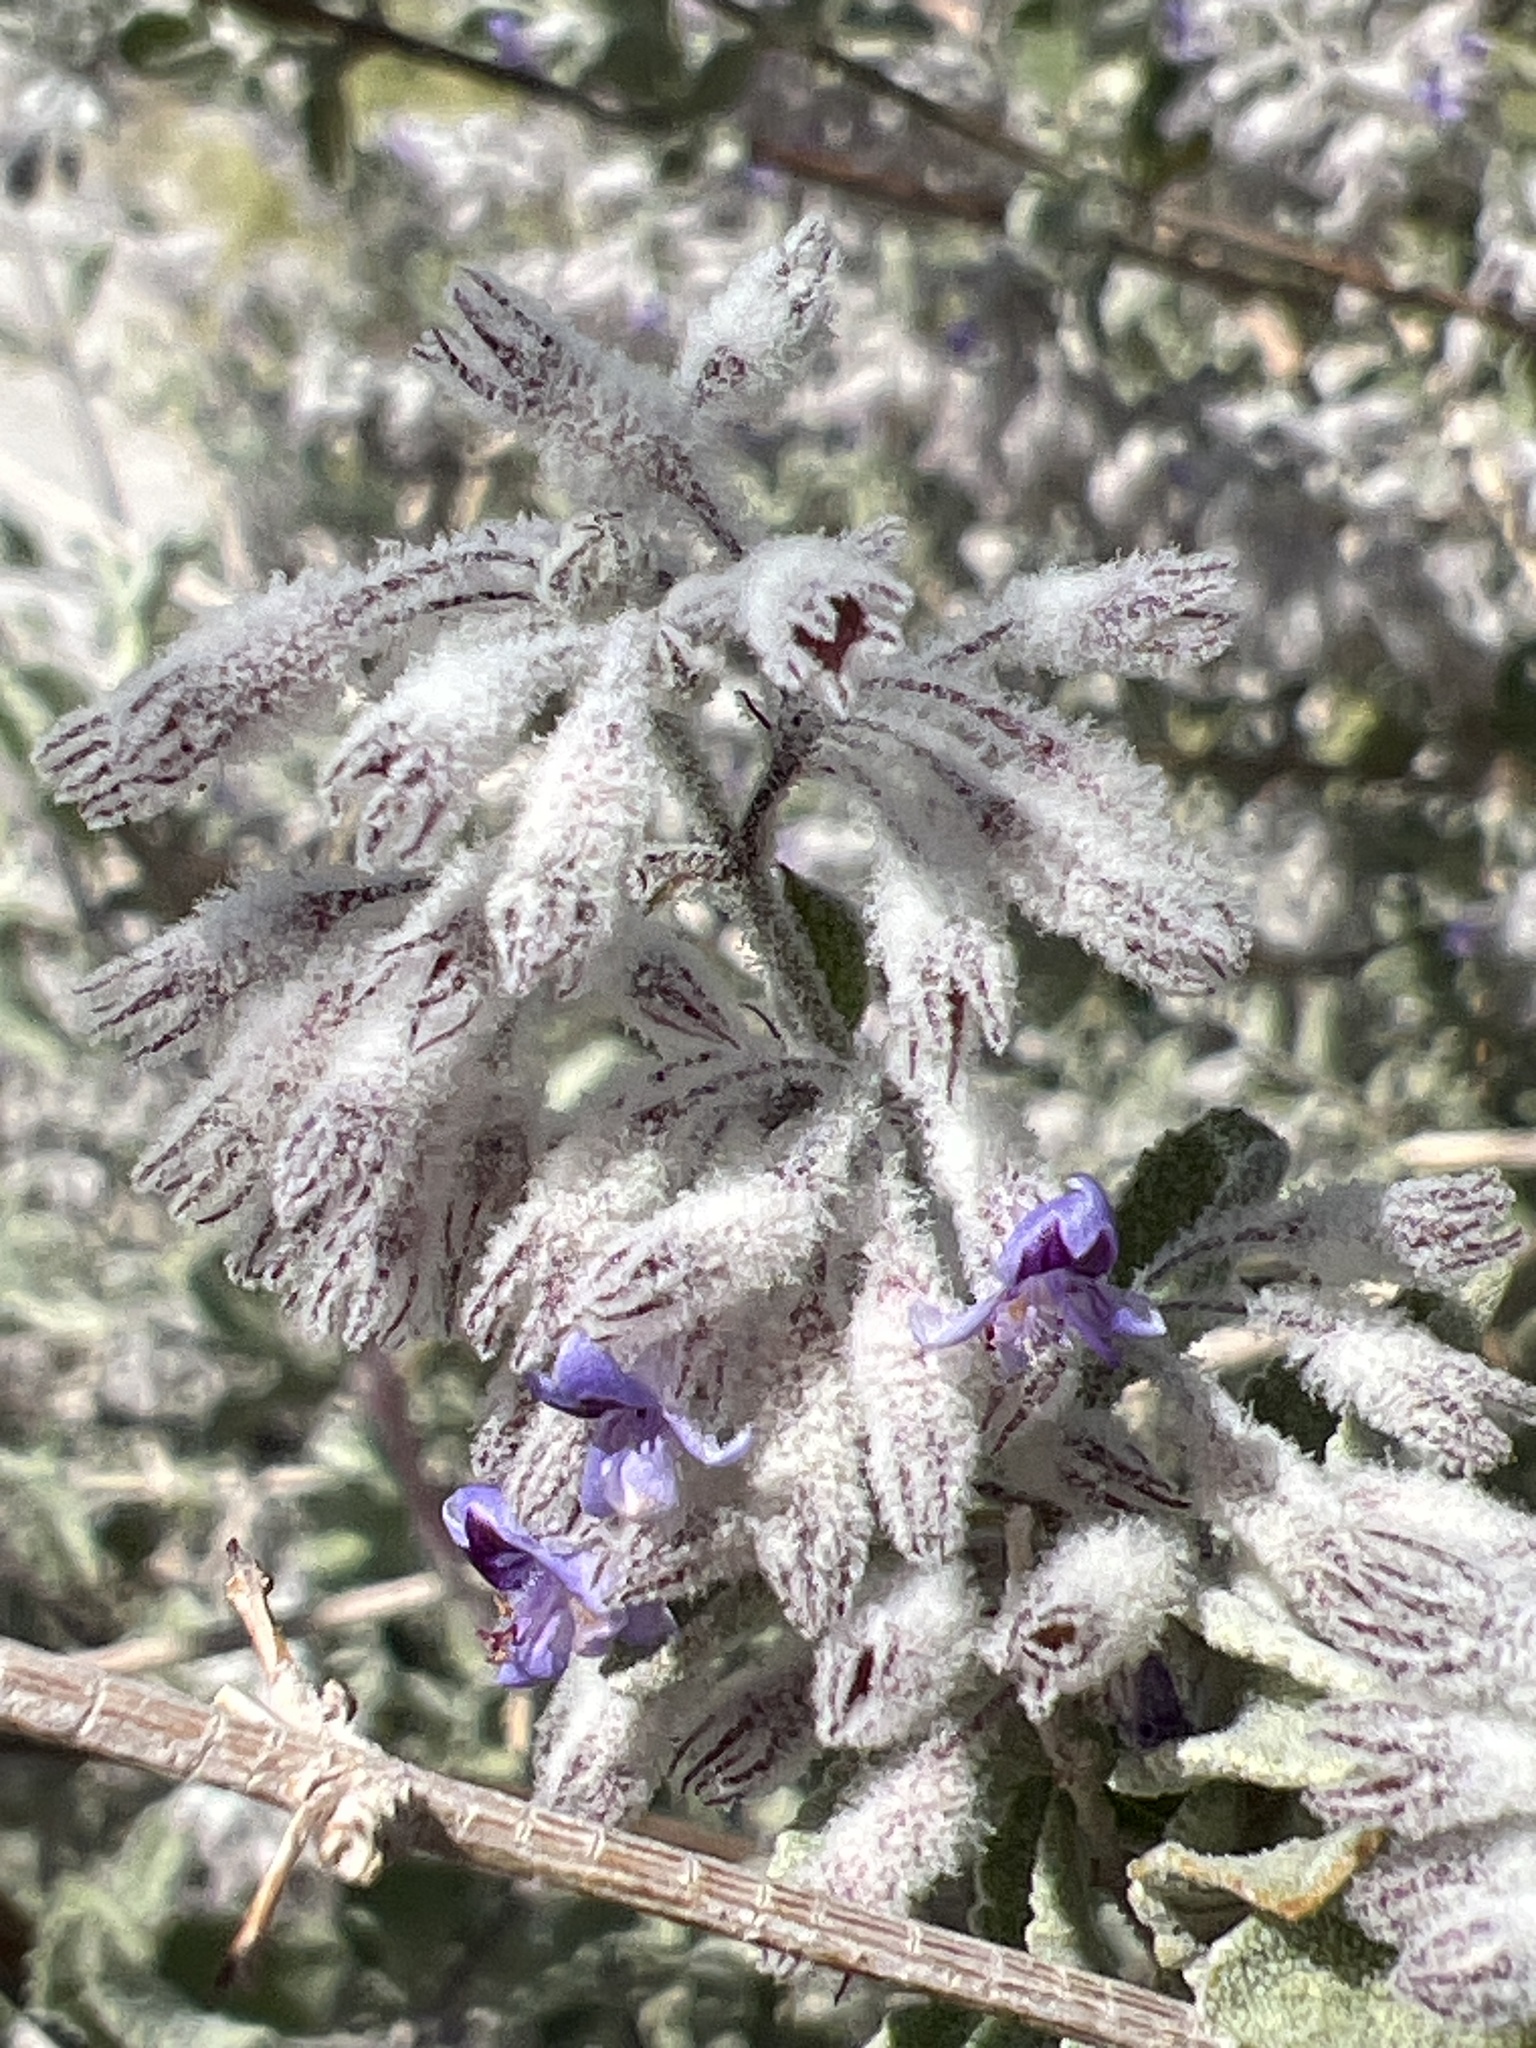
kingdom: Plantae
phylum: Tracheophyta
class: Magnoliopsida
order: Lamiales
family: Lamiaceae
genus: Condea
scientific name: Condea emoryi
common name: Chia
